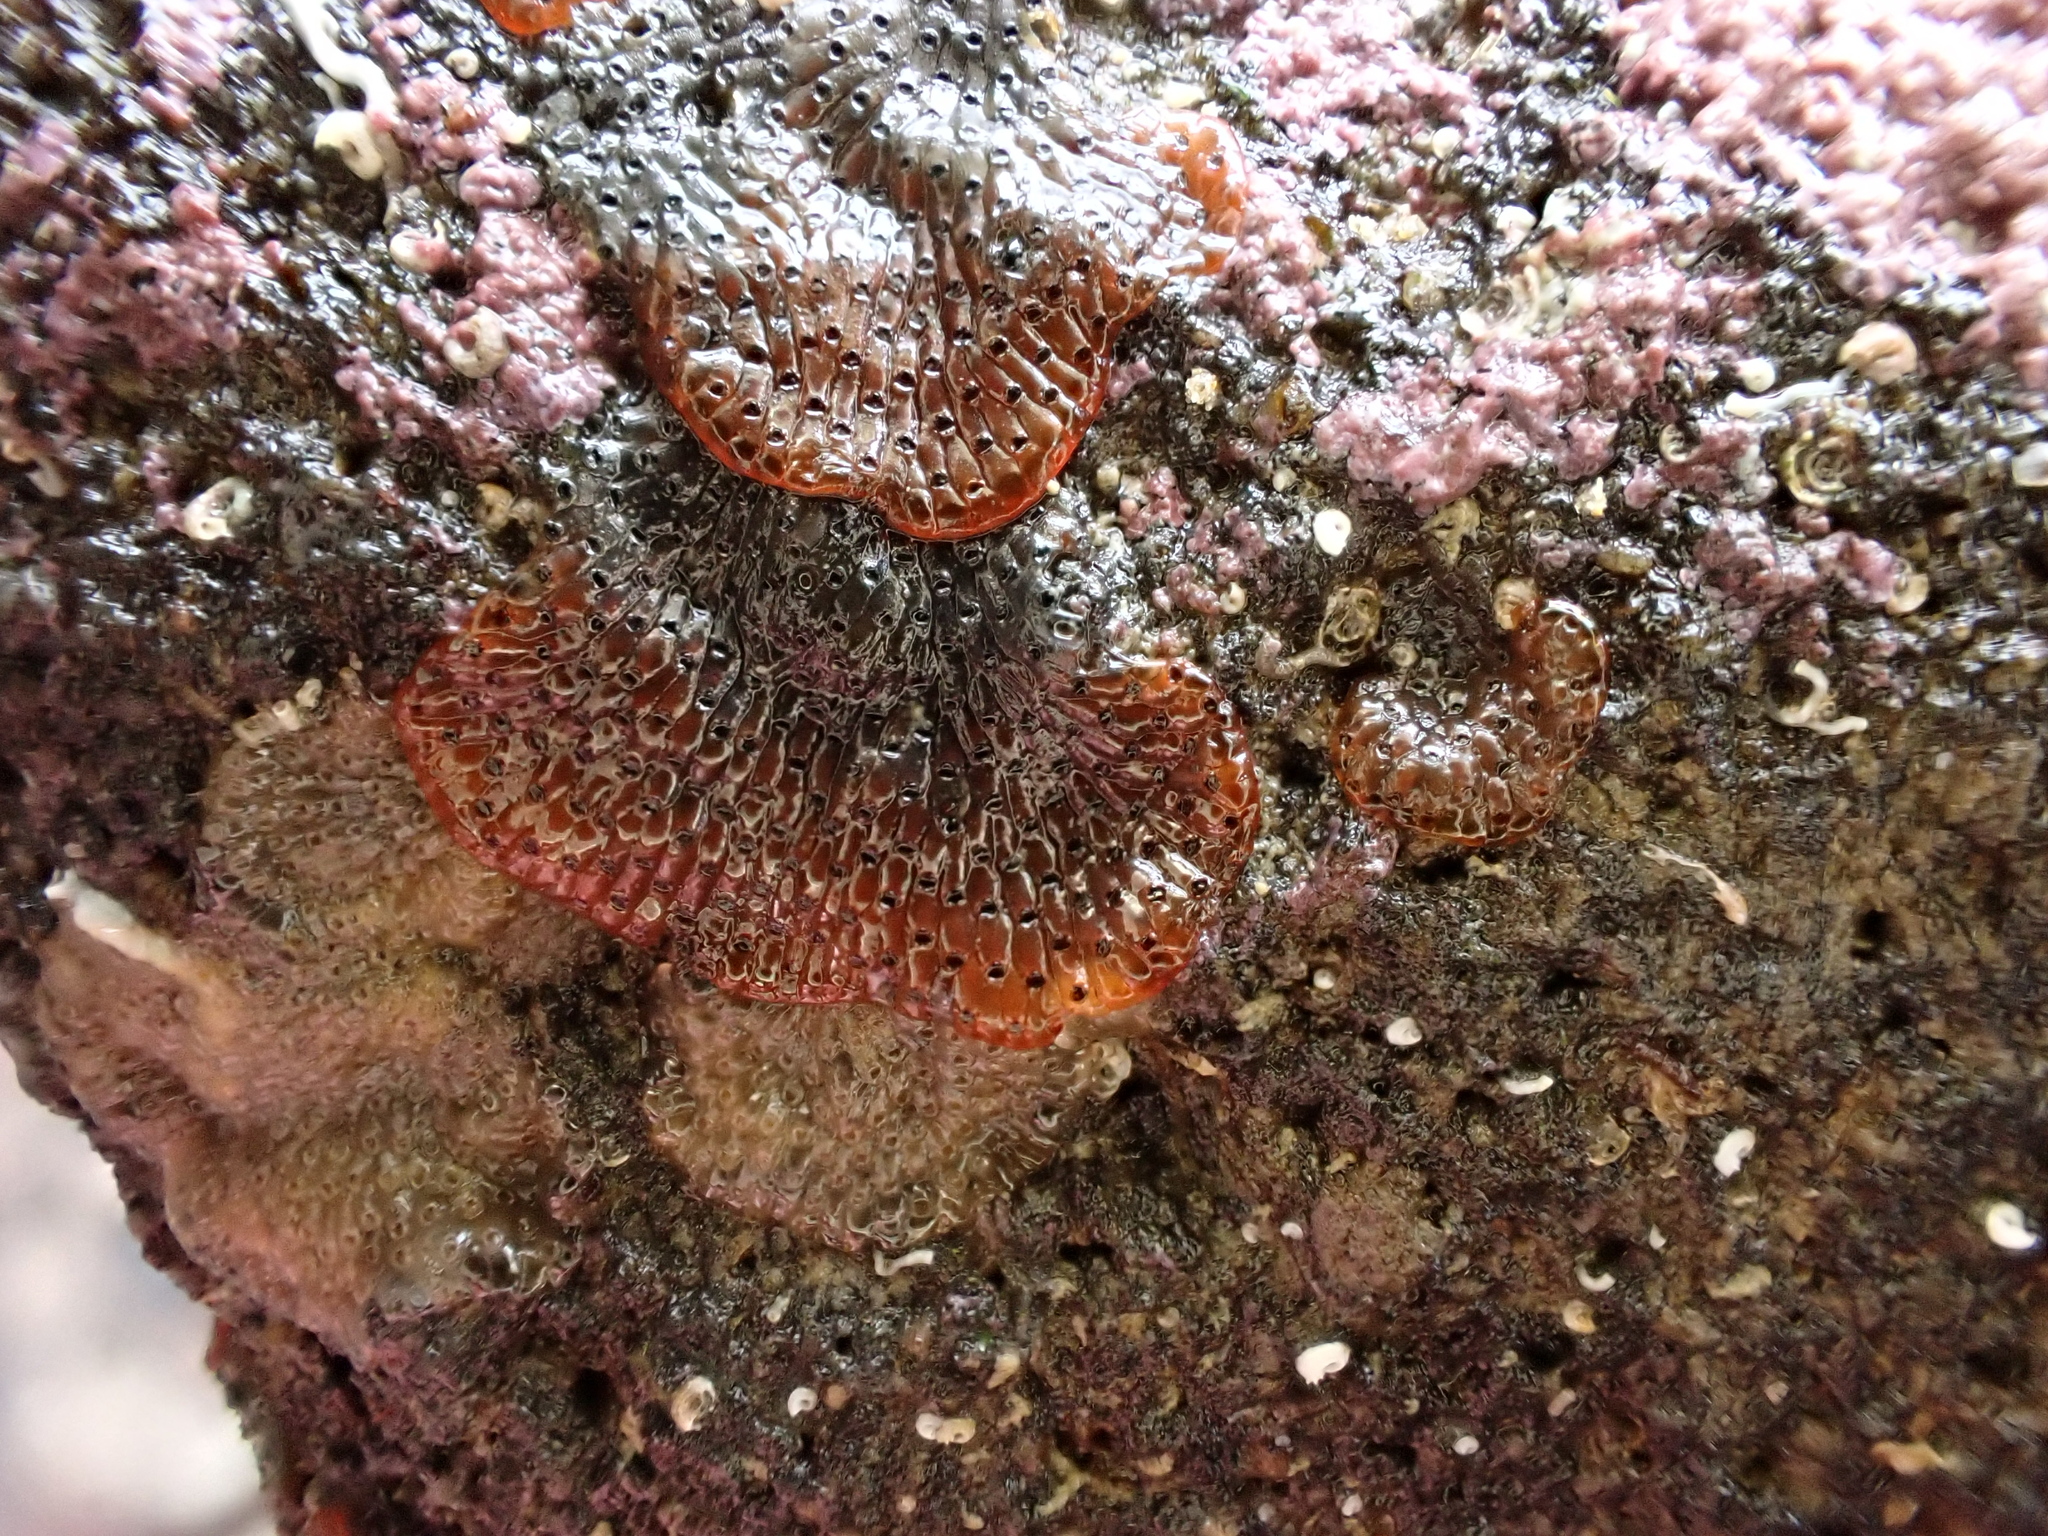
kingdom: Animalia
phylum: Bryozoa
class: Gymnolaemata
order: Cheilostomatida
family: Watersiporidae
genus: Watersipora
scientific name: Watersipora subatra
